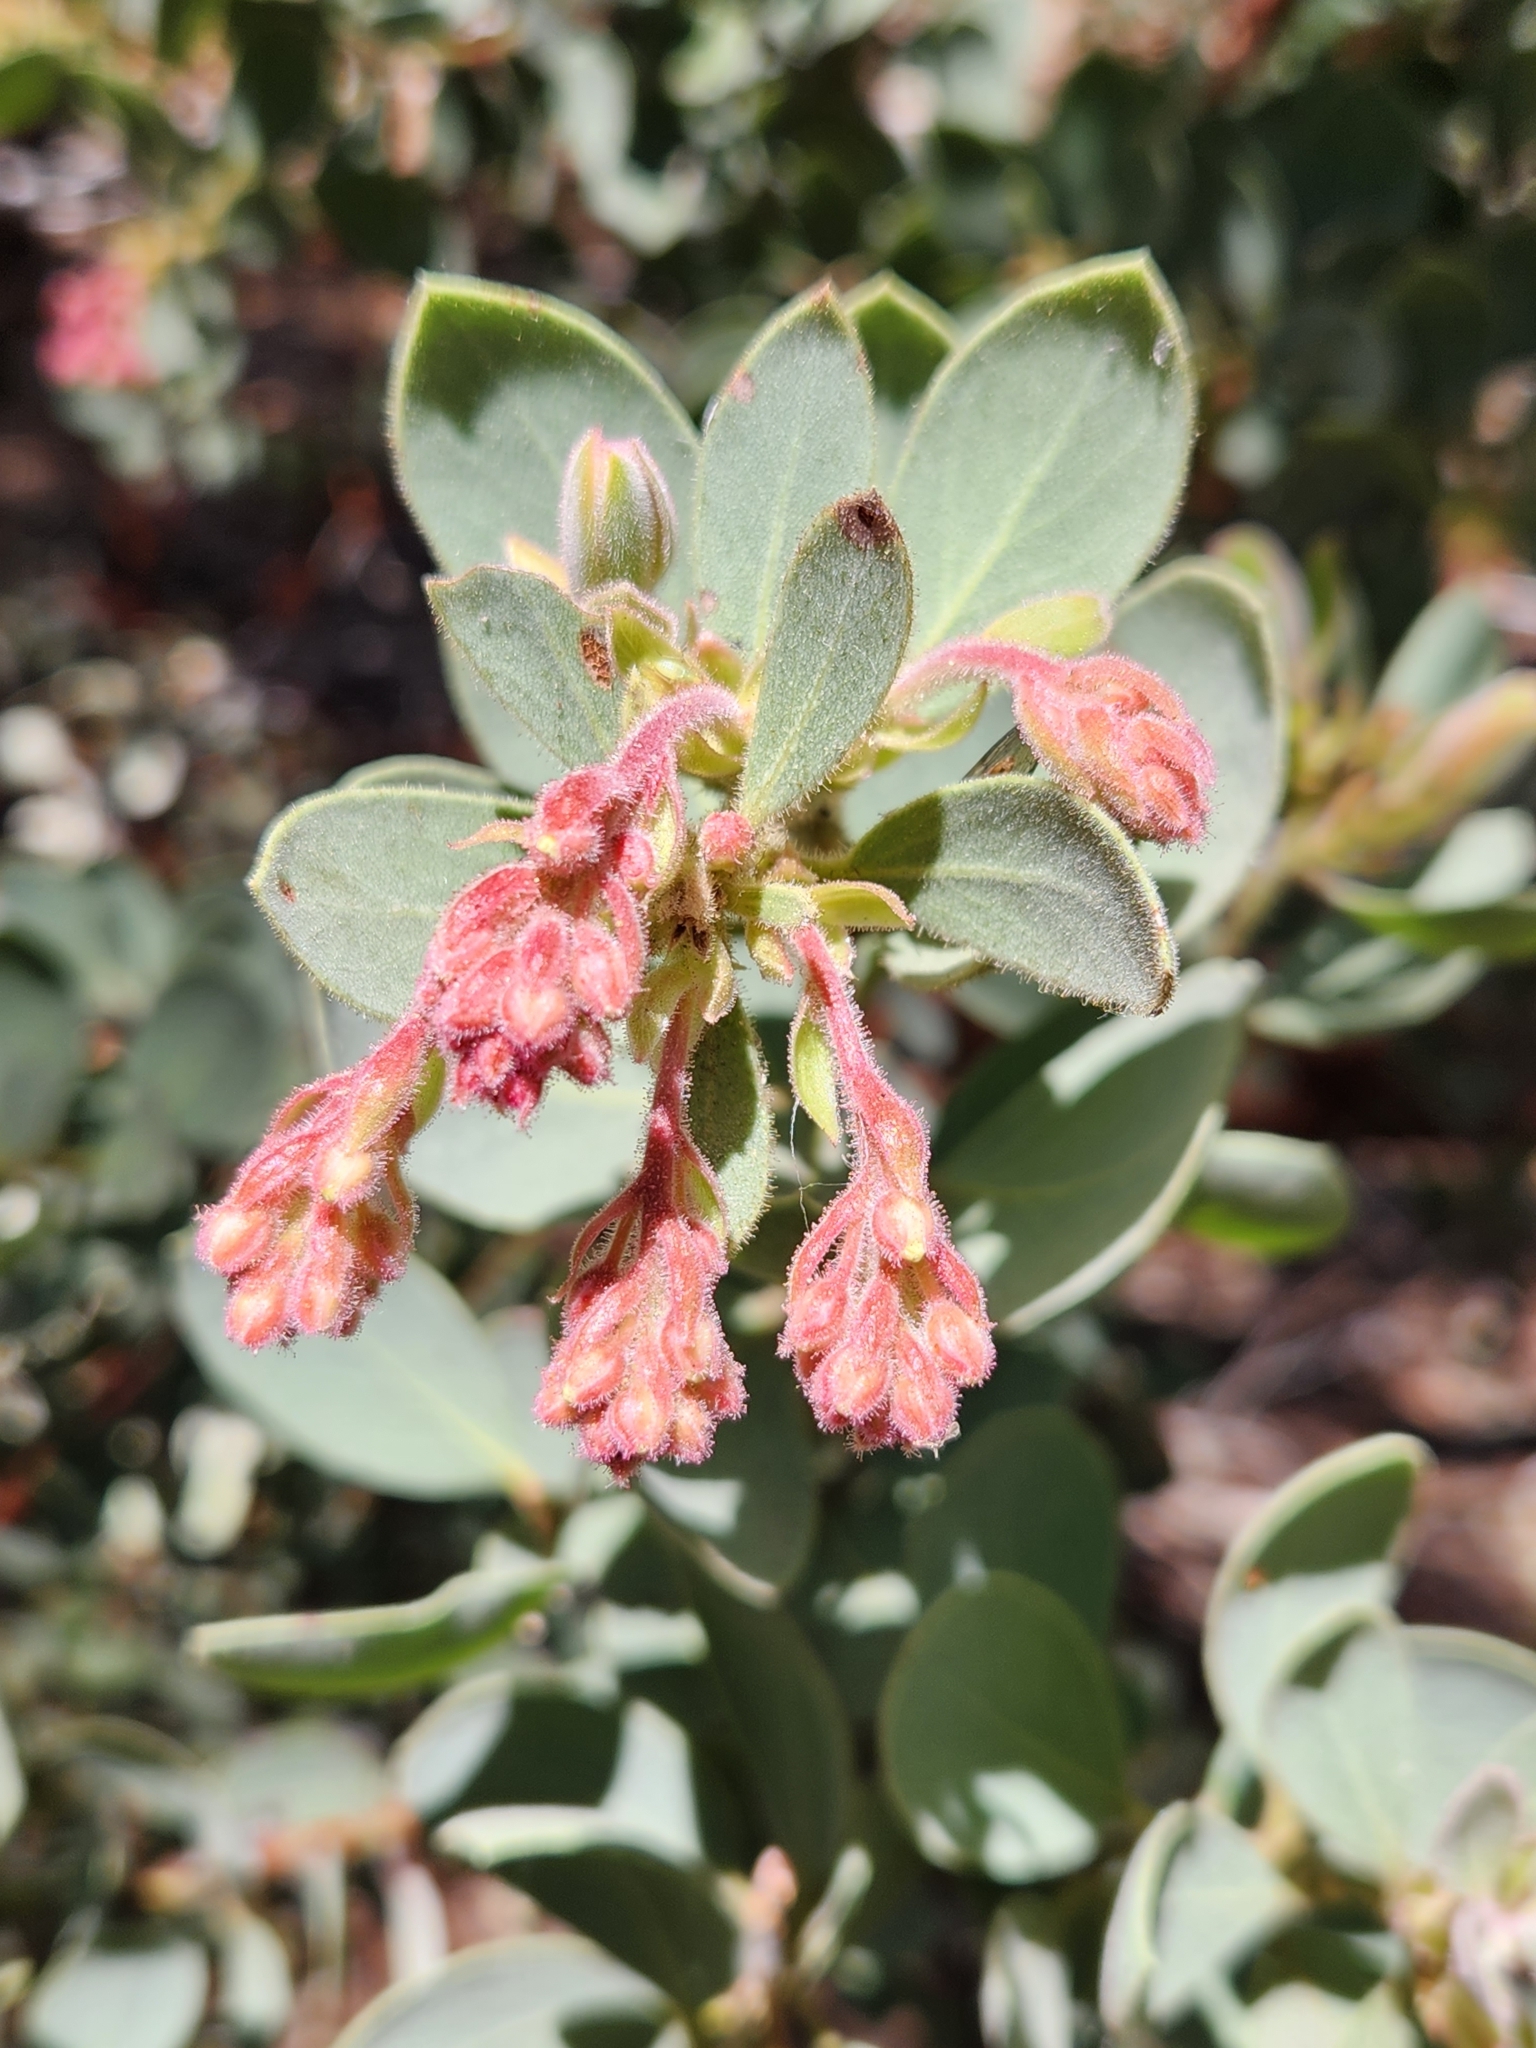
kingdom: Plantae
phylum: Tracheophyta
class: Magnoliopsida
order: Ericales
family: Ericaceae
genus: Arctostaphylos
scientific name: Arctostaphylos pringlei
